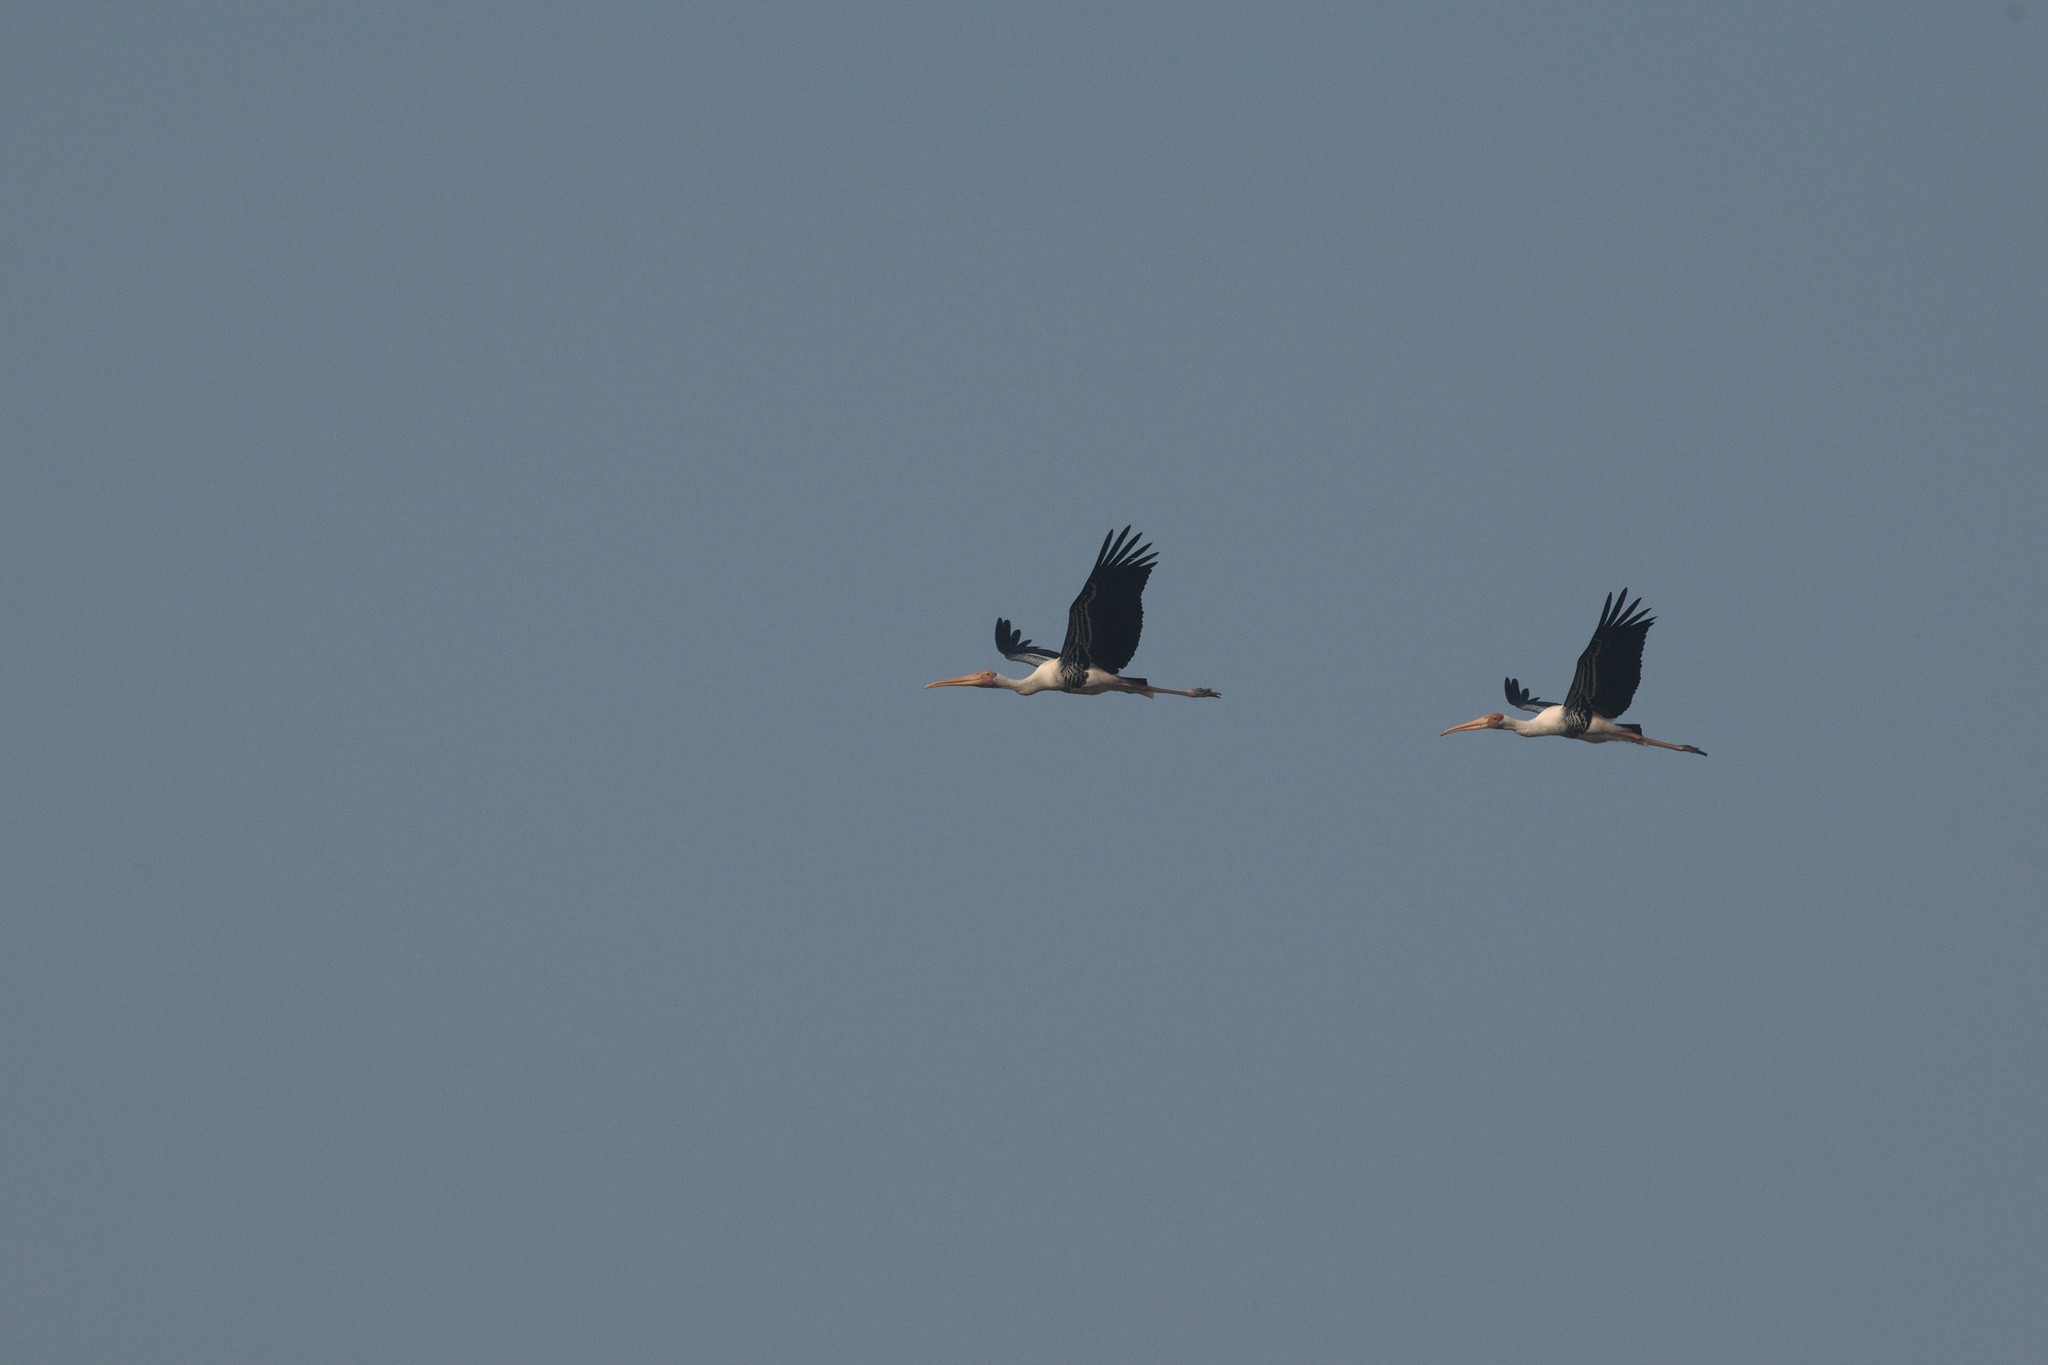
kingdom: Animalia
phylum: Chordata
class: Aves
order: Ciconiiformes
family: Ciconiidae
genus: Mycteria
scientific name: Mycteria leucocephala
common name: Painted stork
